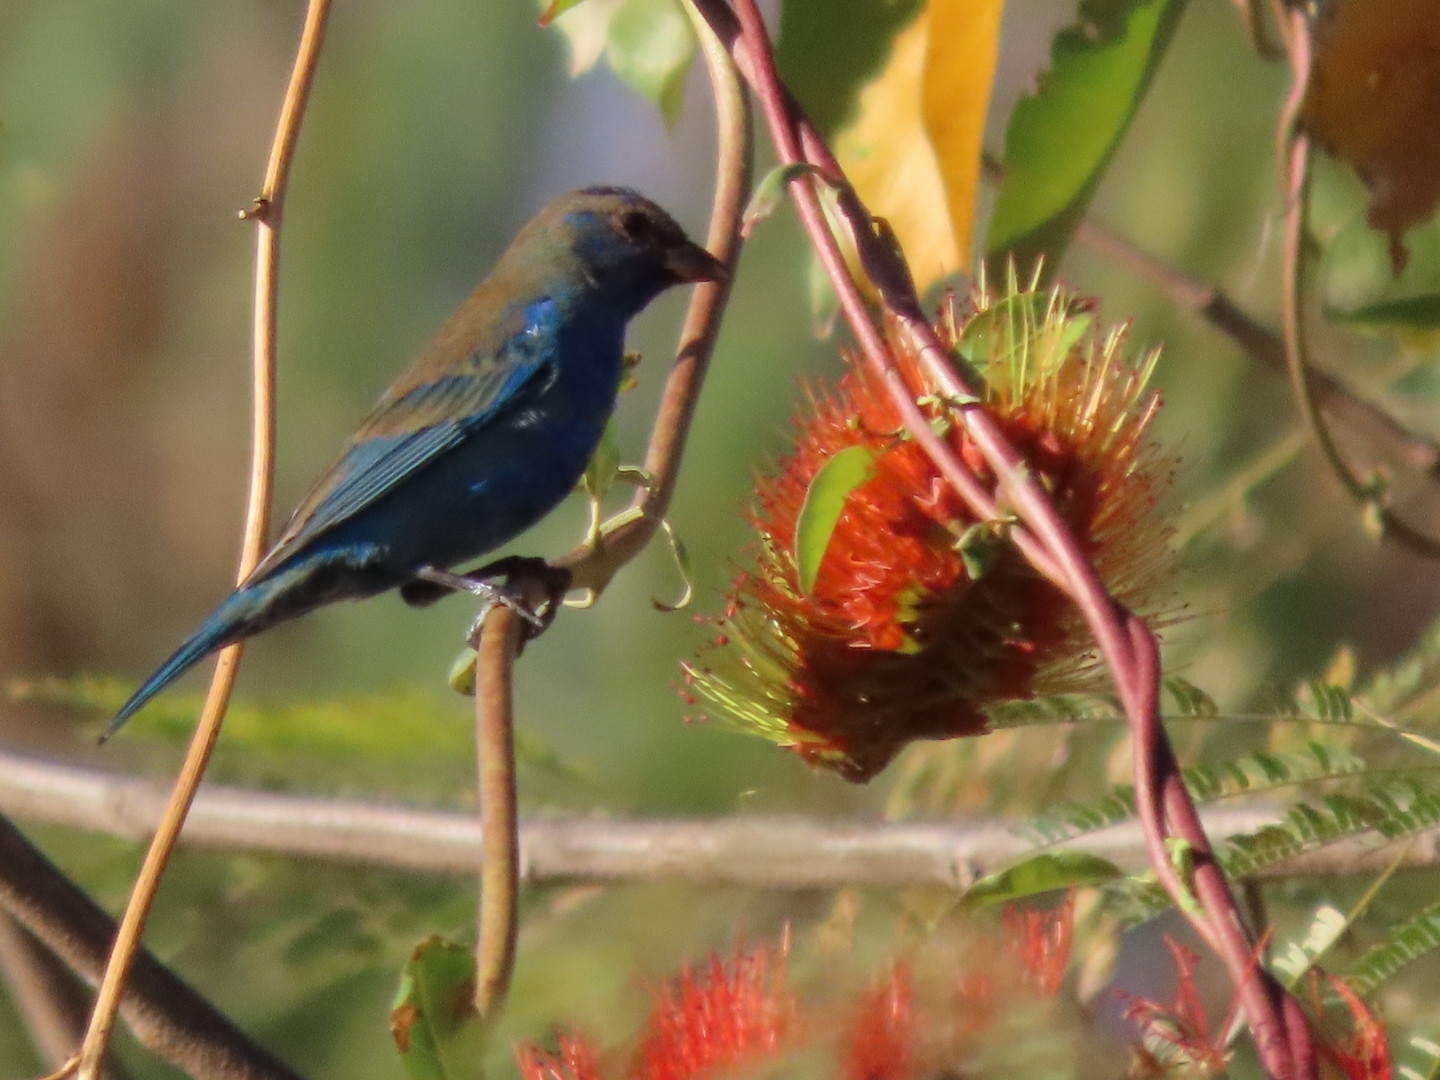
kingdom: Animalia
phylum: Chordata
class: Aves
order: Passeriformes
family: Cardinalidae
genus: Passerina
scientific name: Passerina cyanea
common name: Indigo bunting
